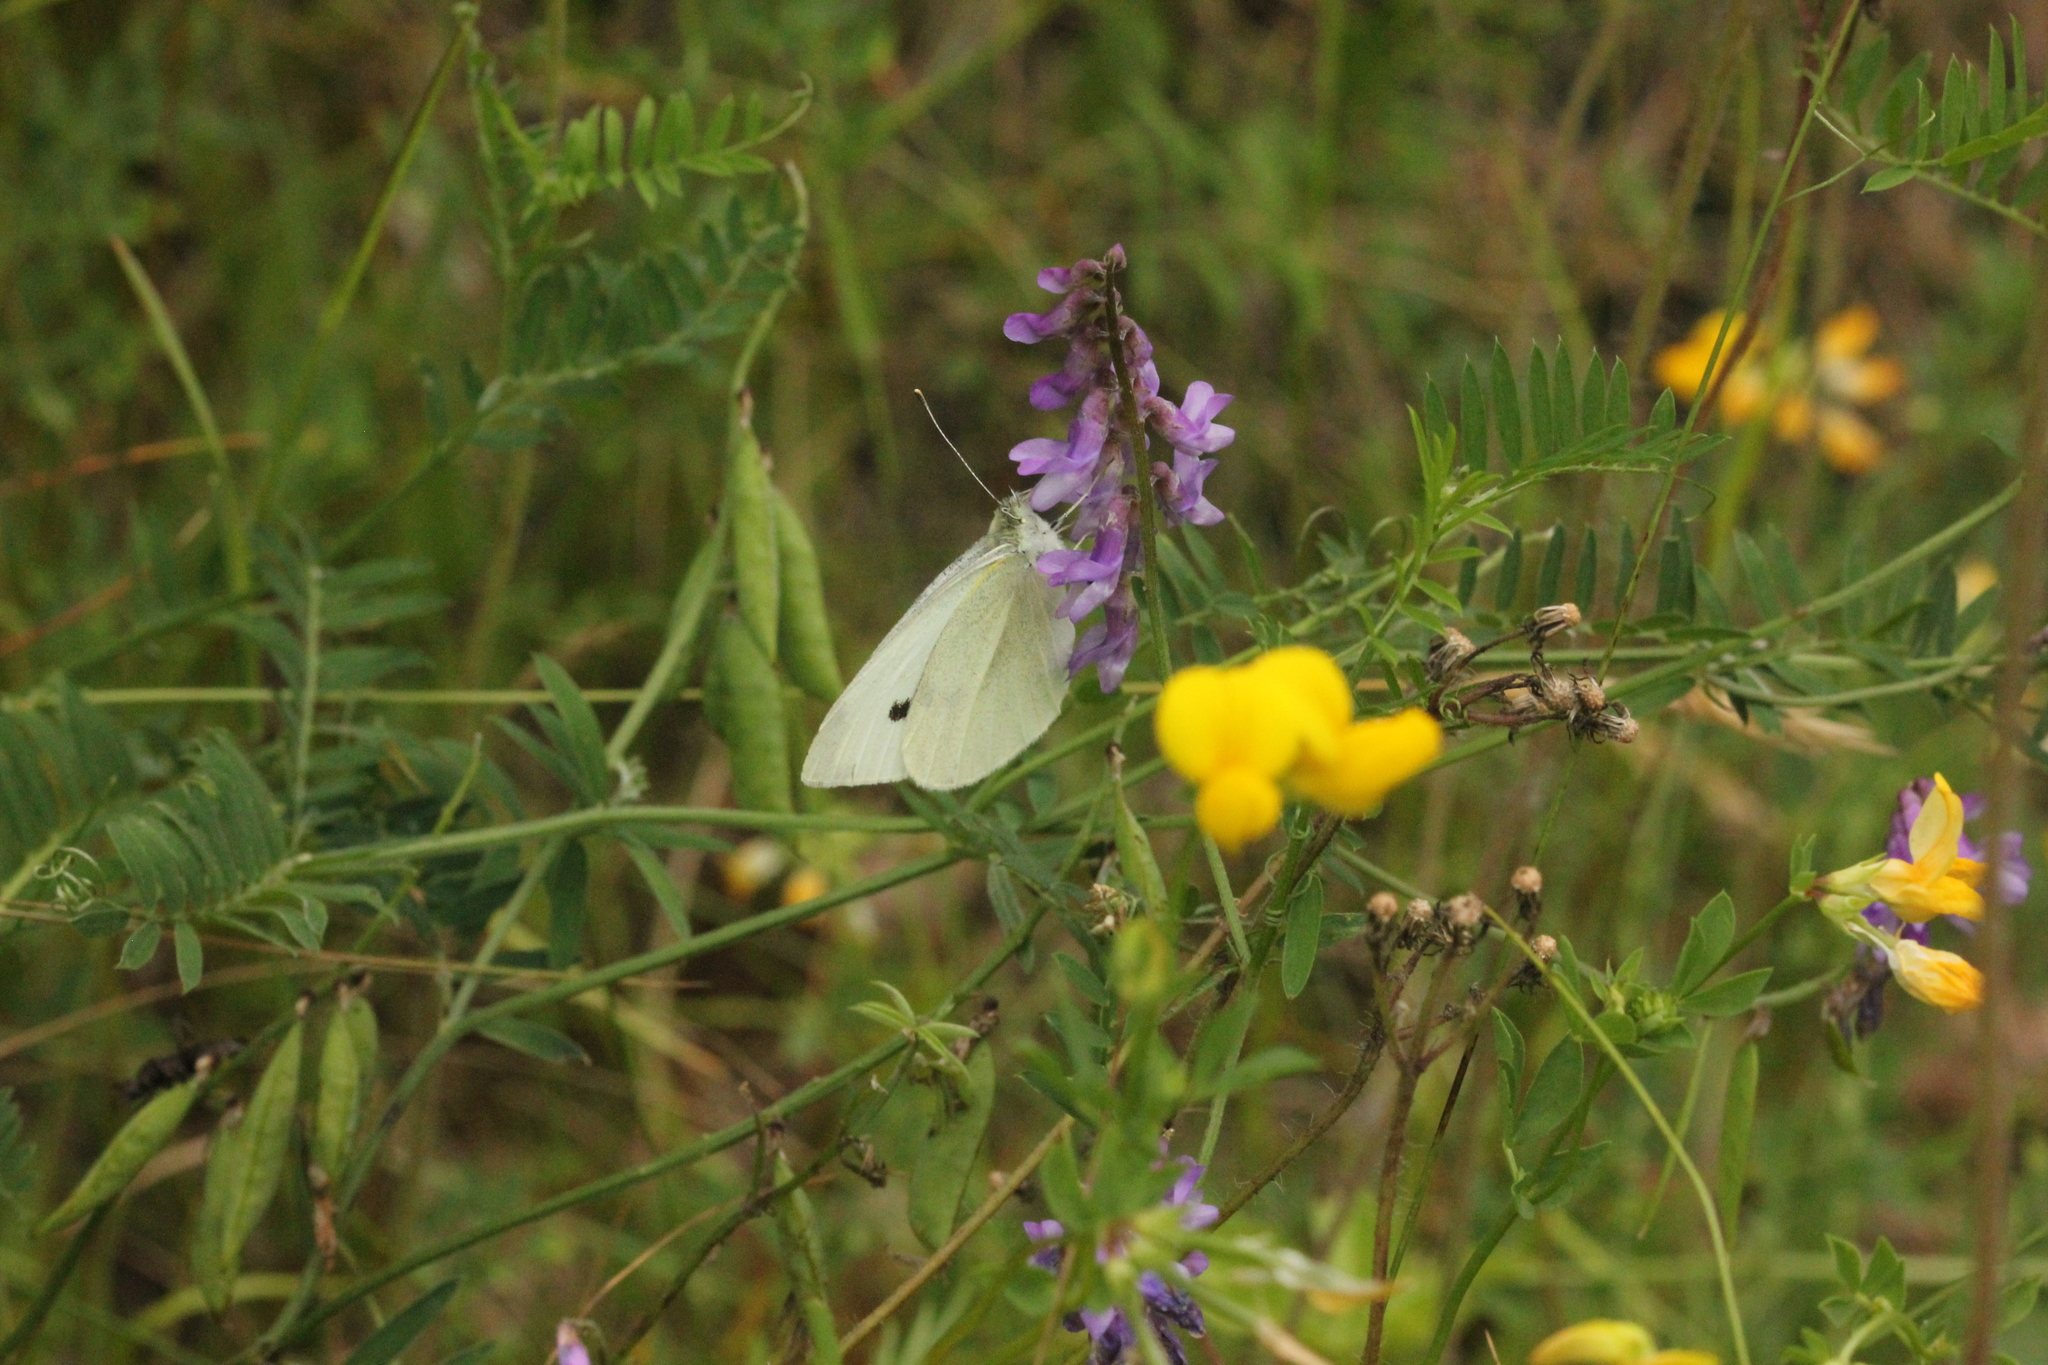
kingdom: Animalia
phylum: Arthropoda
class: Insecta
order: Lepidoptera
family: Pieridae
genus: Pieris
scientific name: Pieris rapae
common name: Small white
